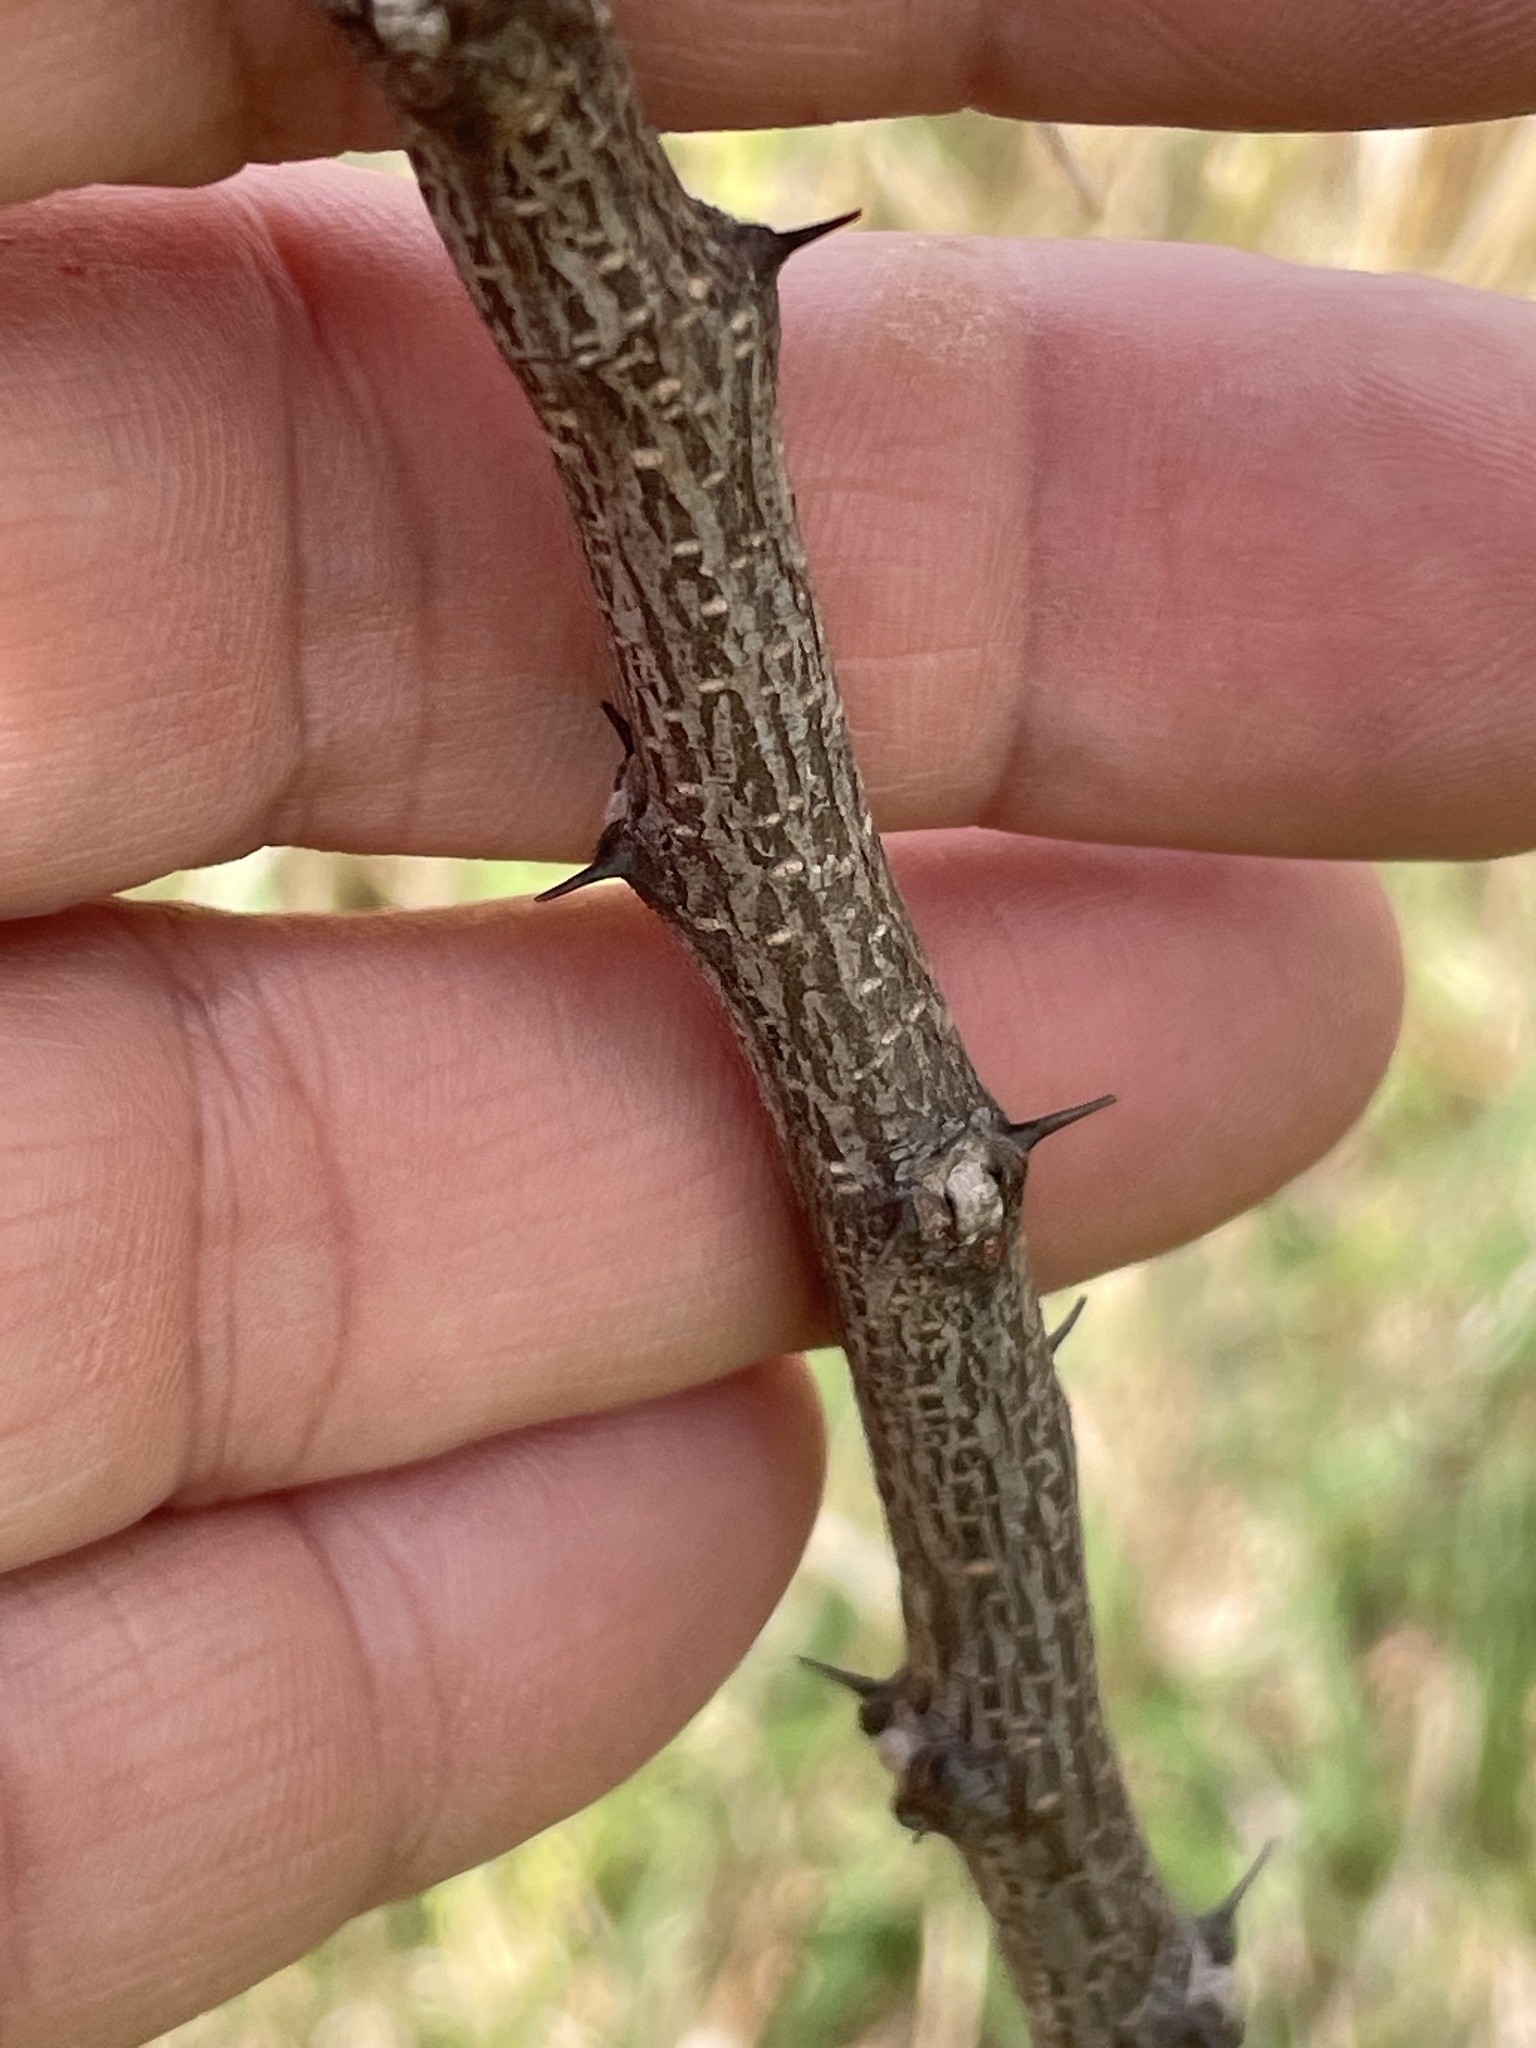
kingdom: Plantae
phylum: Tracheophyta
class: Magnoliopsida
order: Fabales
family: Fabaceae
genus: Robinia
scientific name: Robinia hispida
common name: Bristly locust
